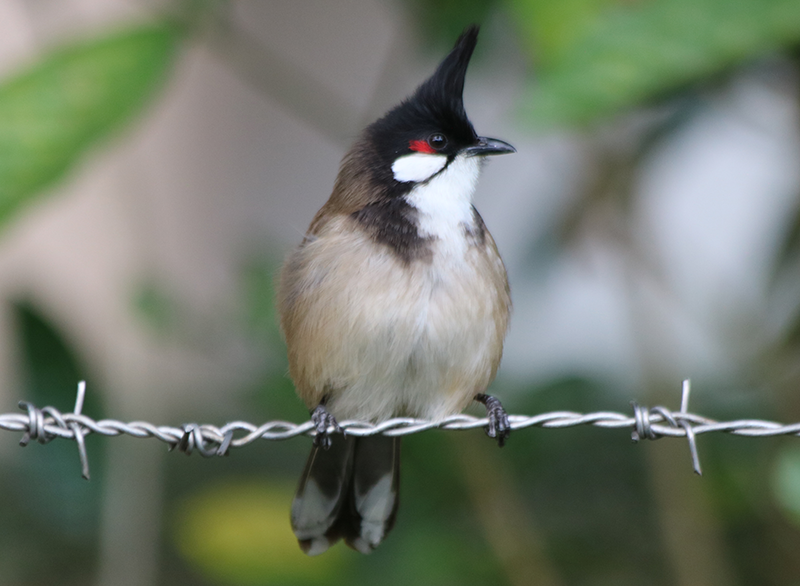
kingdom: Animalia
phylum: Chordata
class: Aves
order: Passeriformes
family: Pycnonotidae
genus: Pycnonotus
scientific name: Pycnonotus jocosus
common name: Red-whiskered bulbul
